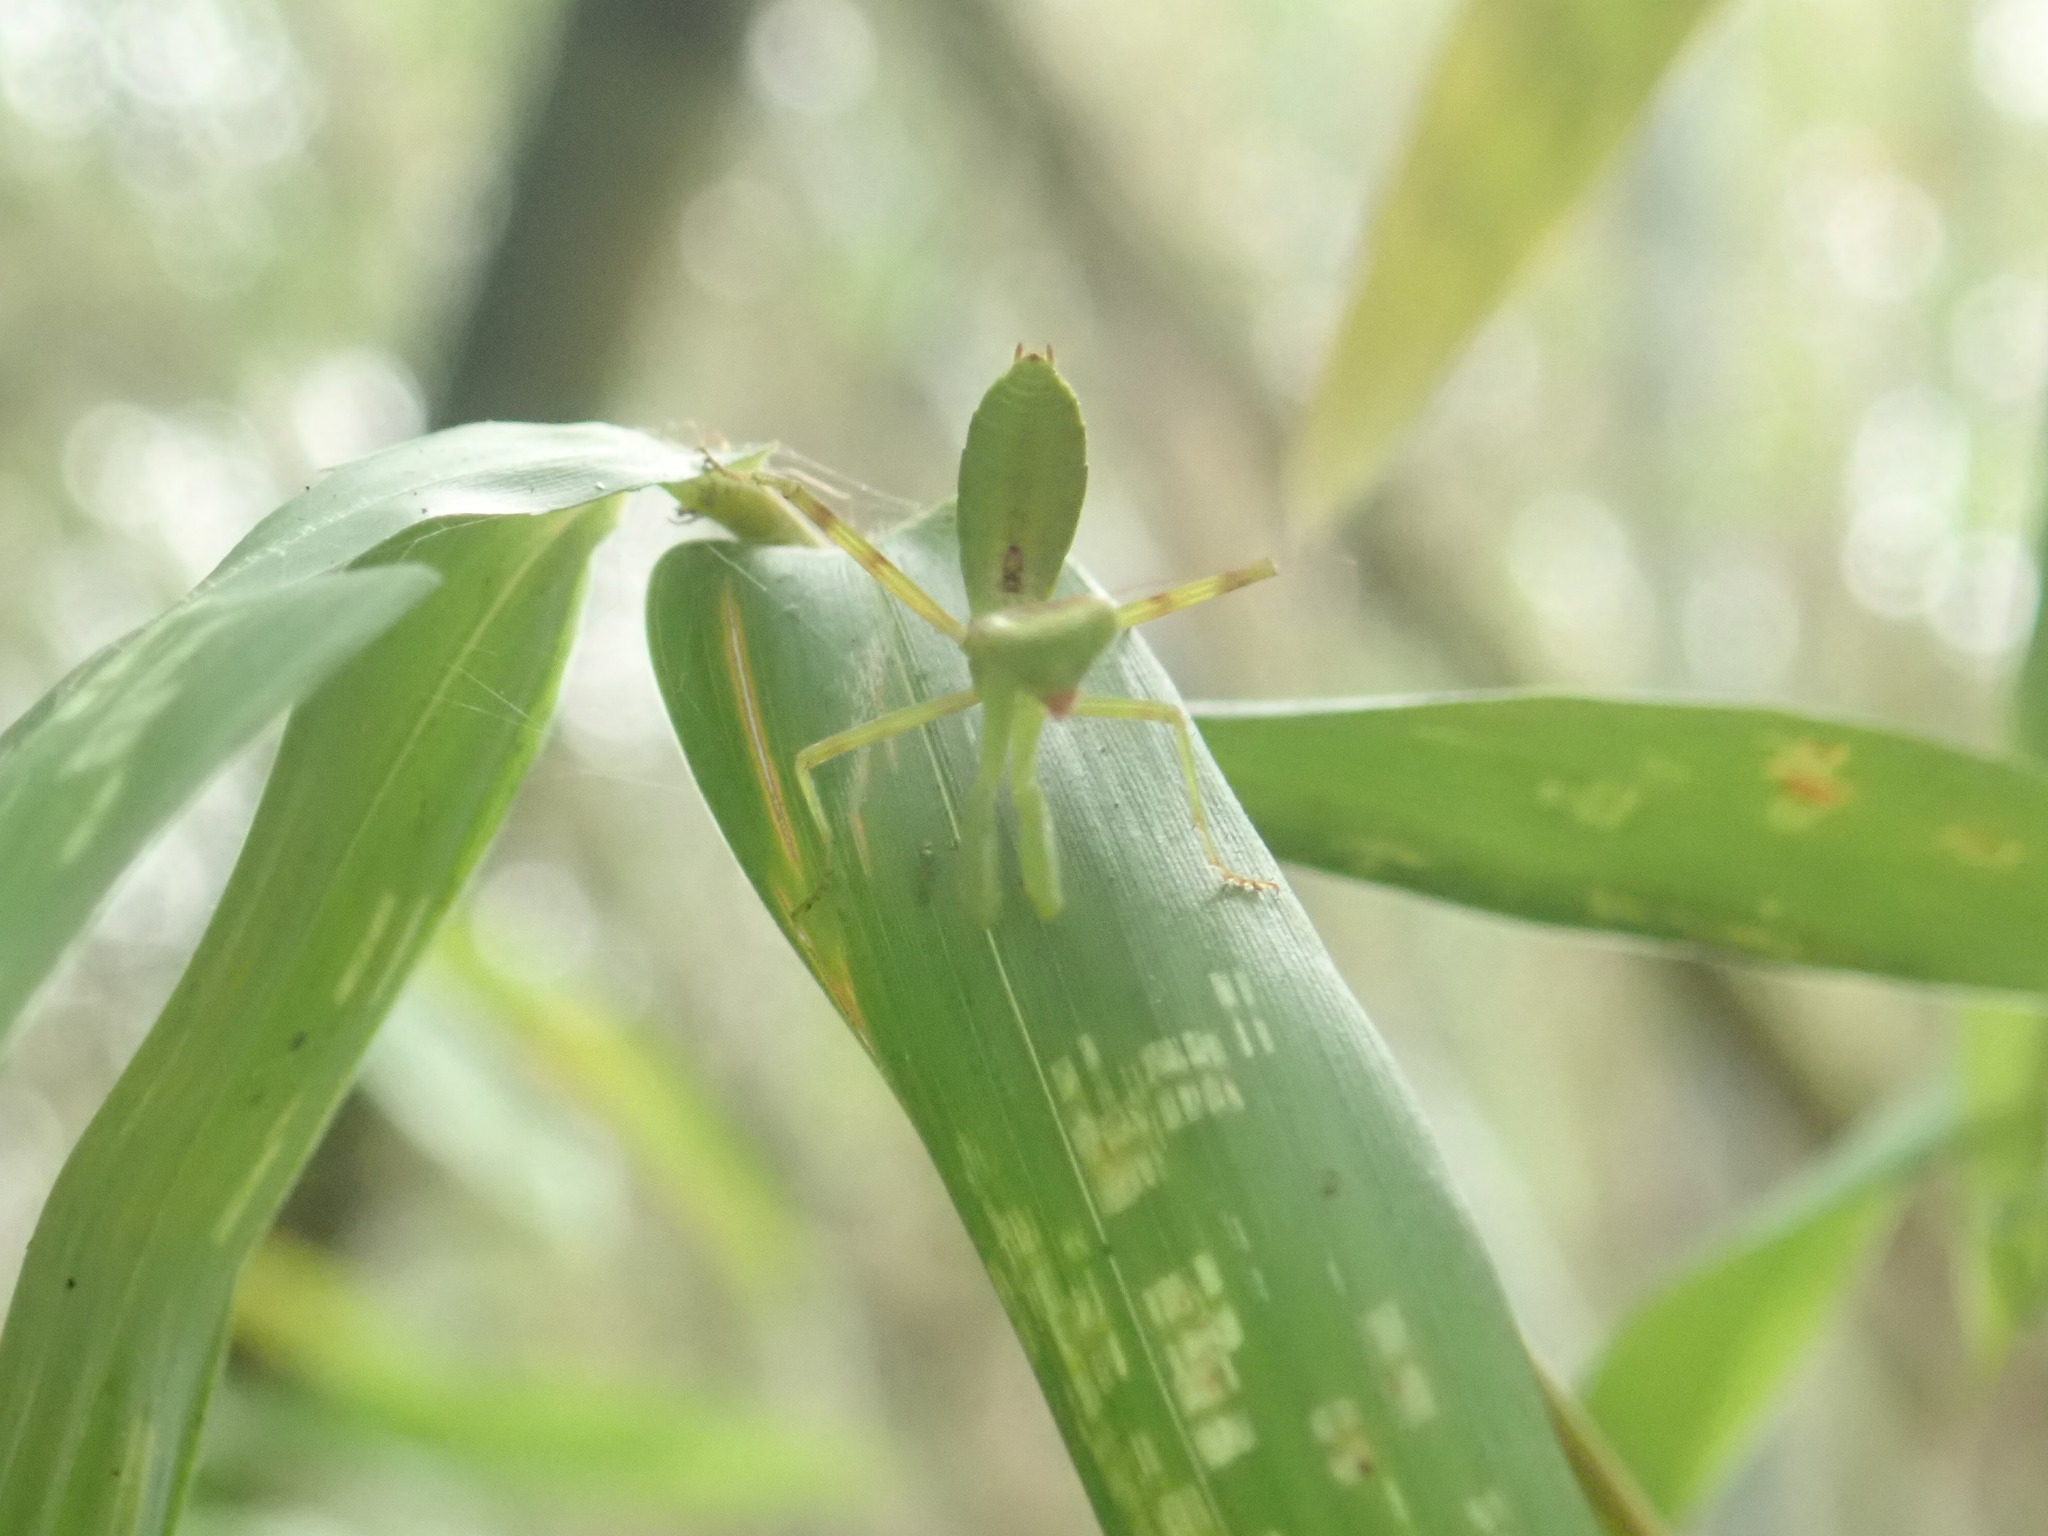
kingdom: Animalia
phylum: Arthropoda
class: Insecta
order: Mantodea
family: Mantidae
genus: Hierodula
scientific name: Hierodula patellifera
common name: Asian mantis
